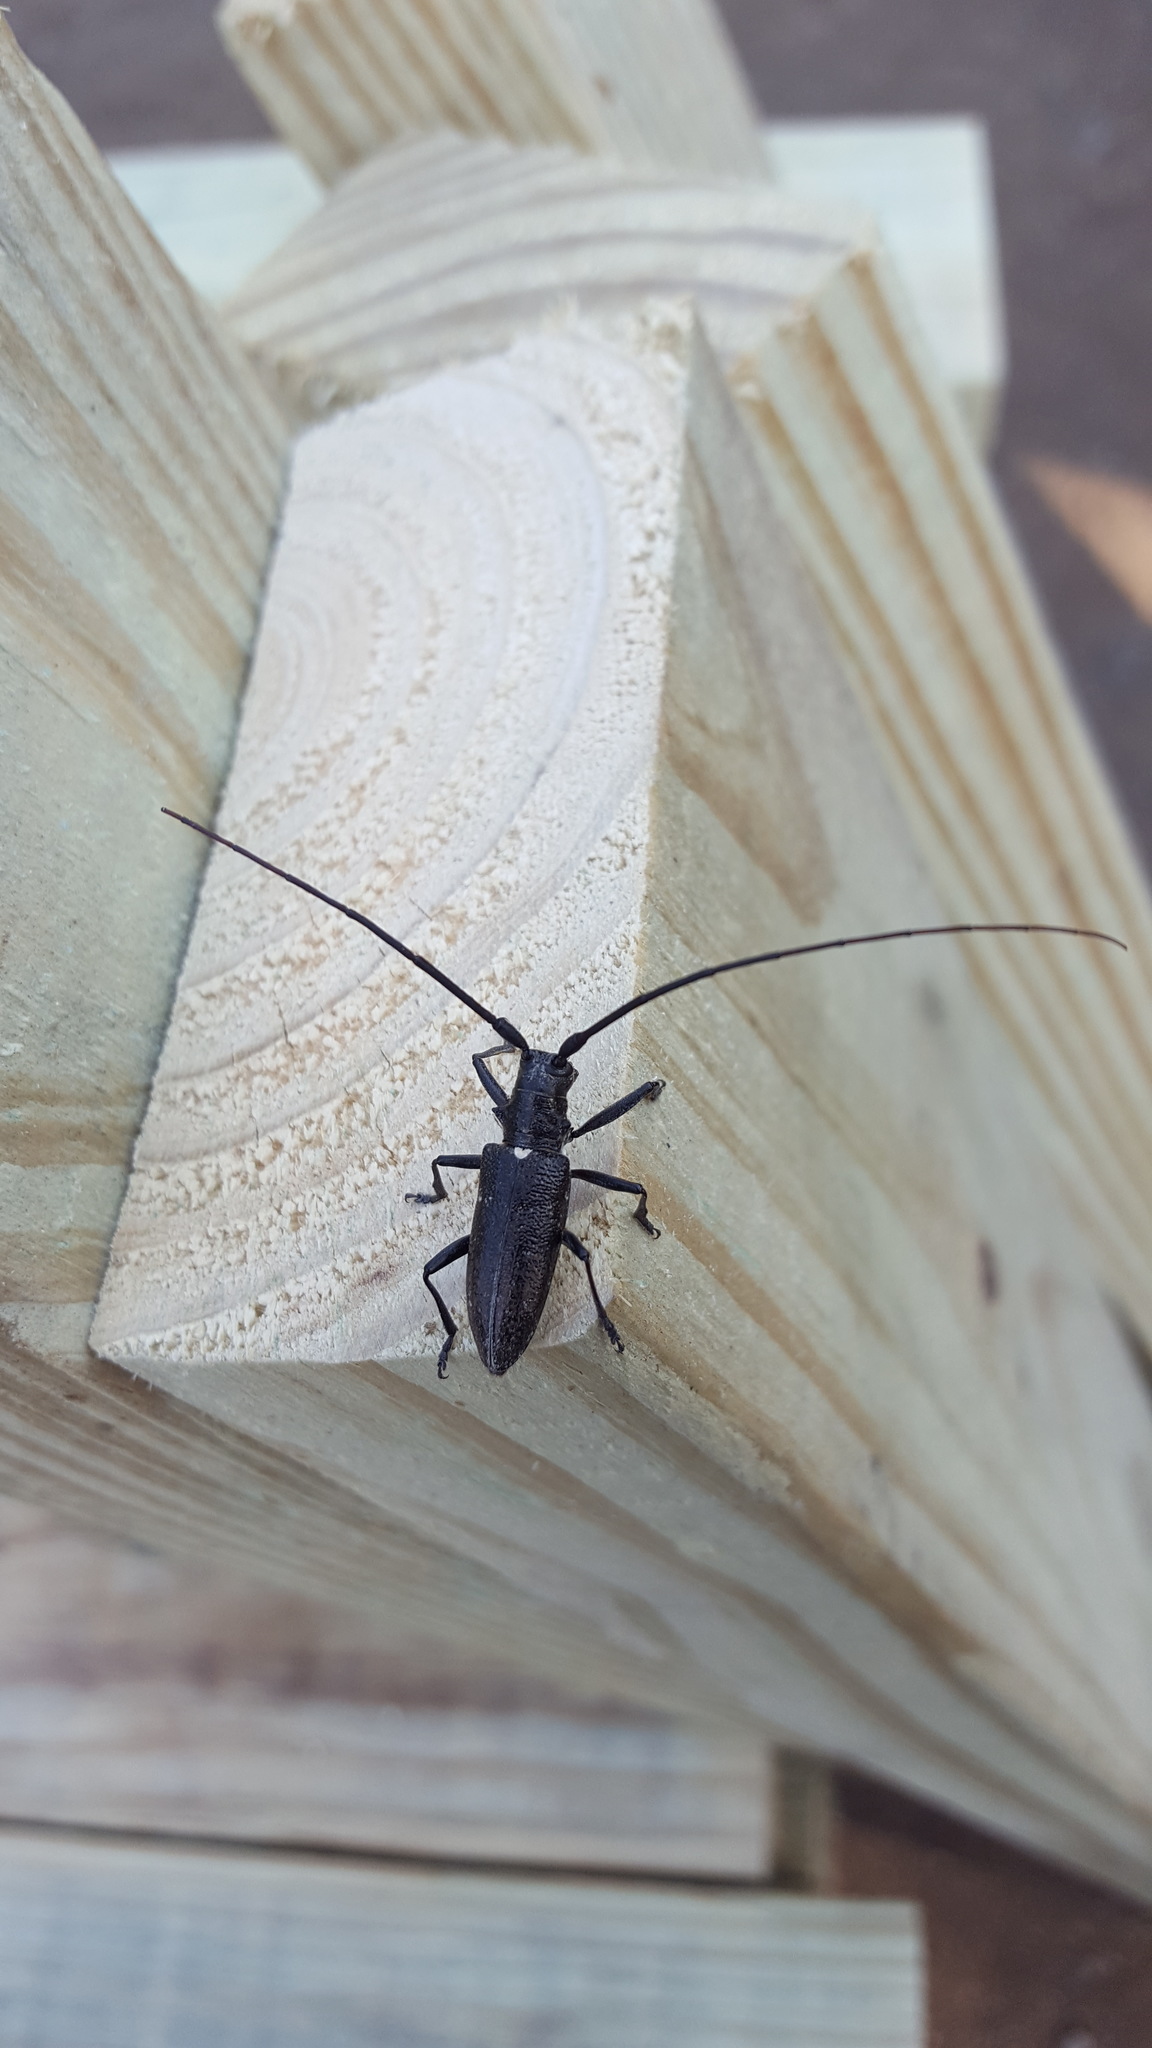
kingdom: Animalia
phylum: Arthropoda
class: Insecta
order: Coleoptera
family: Cerambycidae
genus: Monochamus
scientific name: Monochamus scutellatus
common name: White-spotted sawyer beetle
